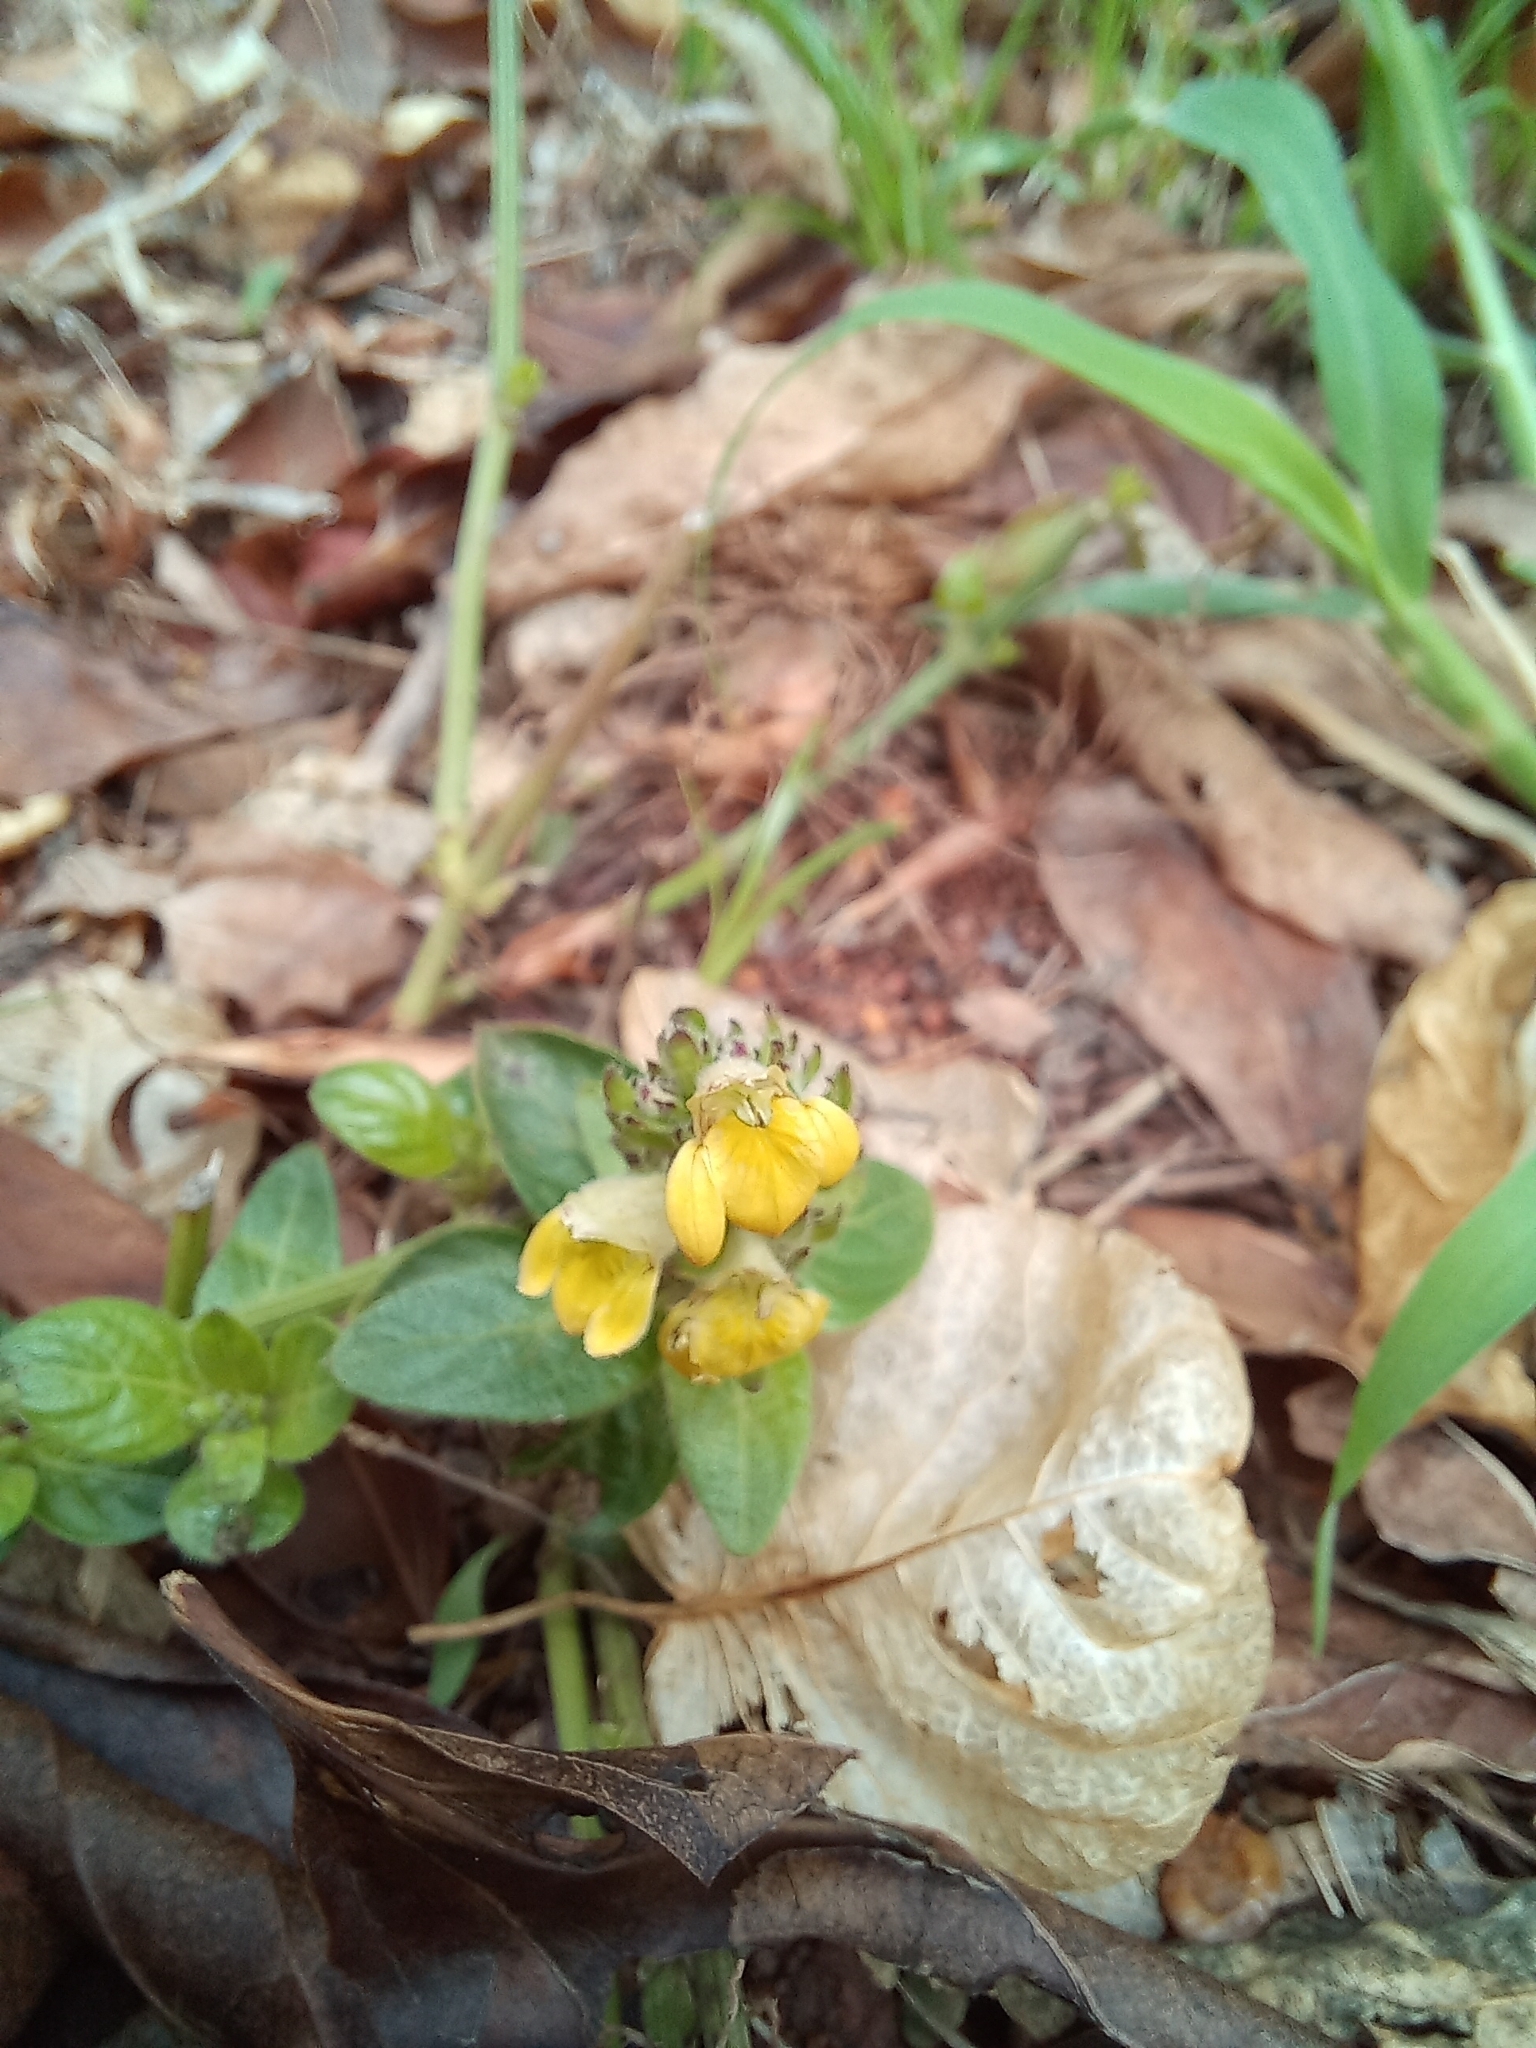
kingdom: Plantae
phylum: Tracheophyta
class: Magnoliopsida
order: Lamiales
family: Acanthaceae
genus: Justicia
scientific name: Justicia flava
